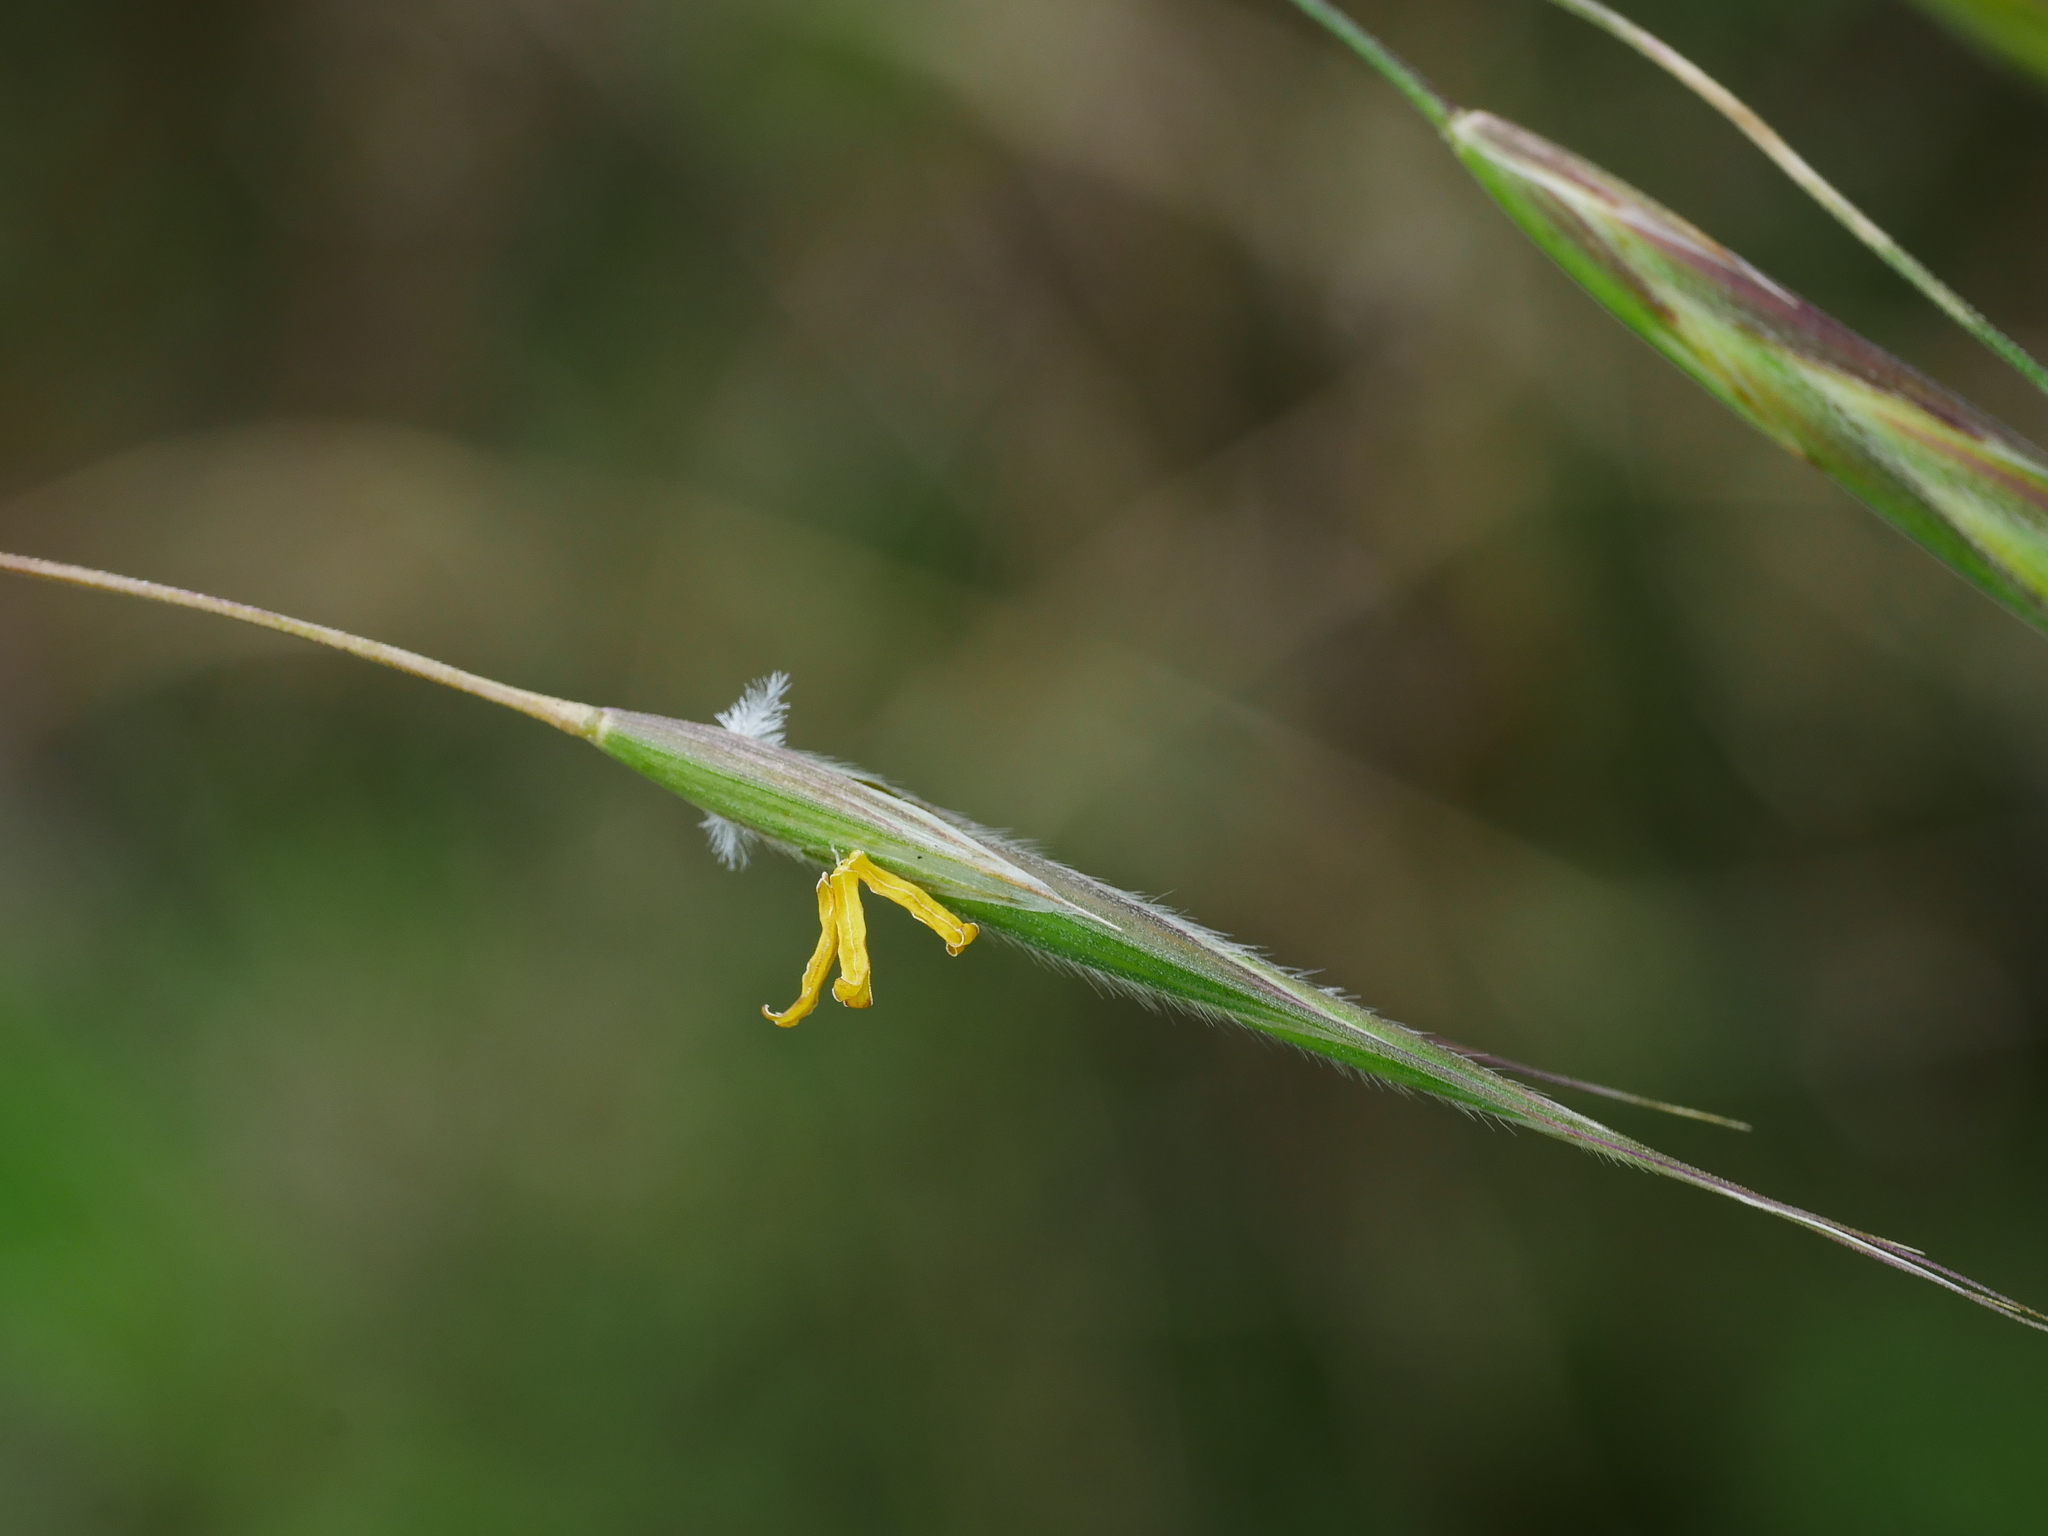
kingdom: Plantae
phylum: Tracheophyta
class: Liliopsida
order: Poales
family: Poaceae
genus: Bromus
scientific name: Bromus carinatus
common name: Mountain brome
